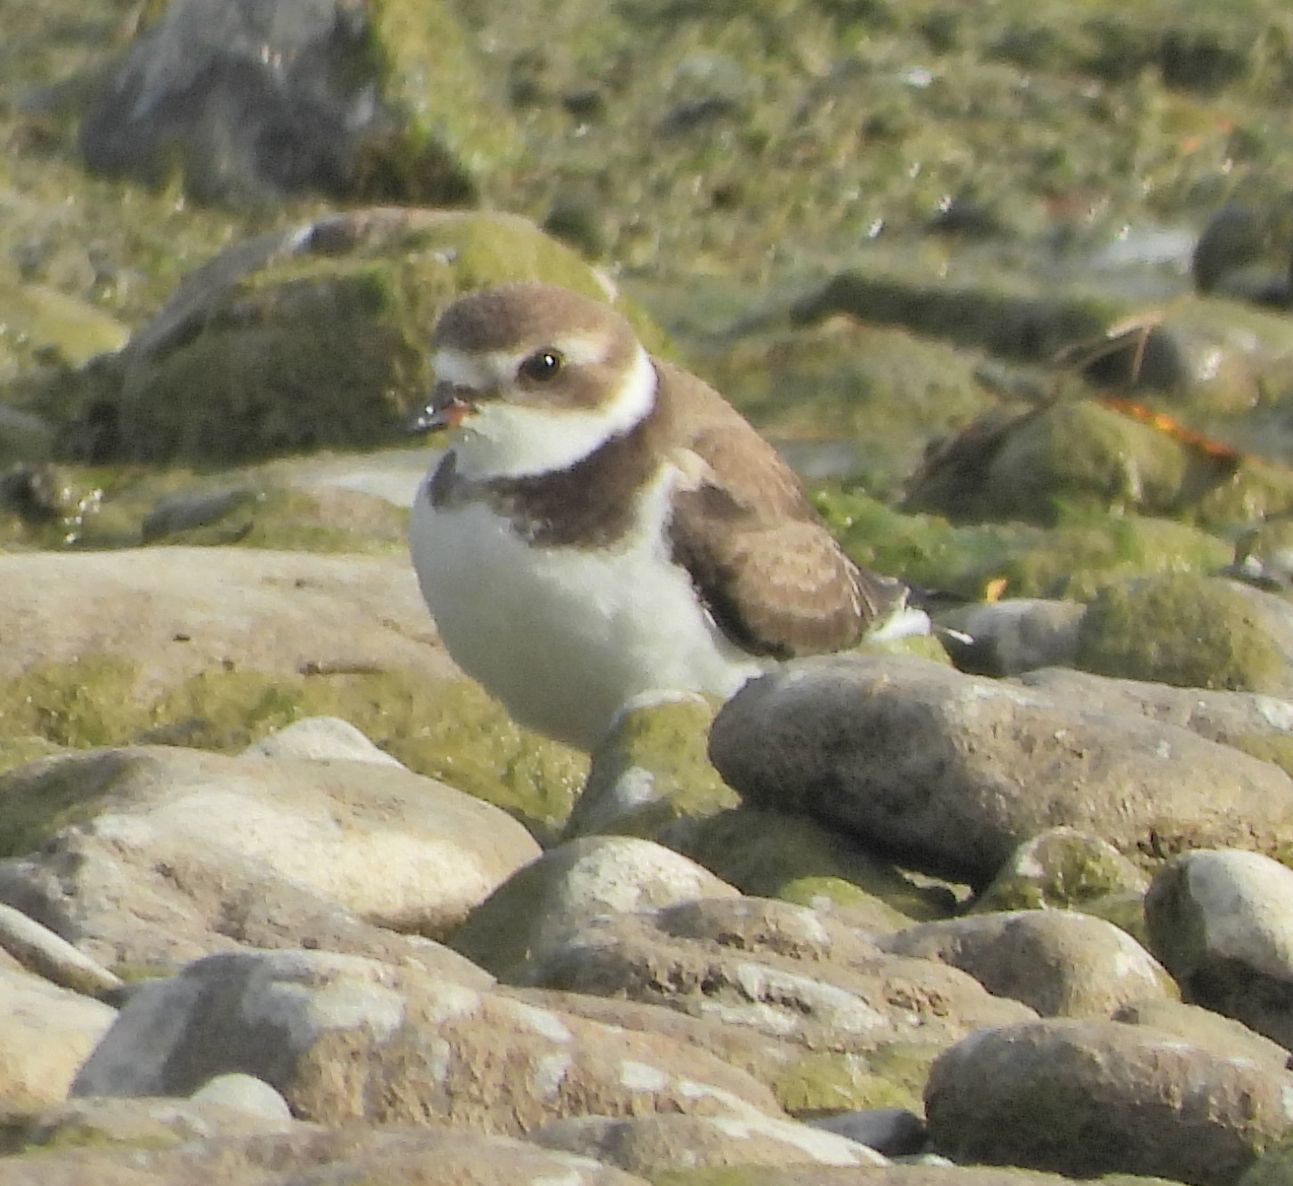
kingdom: Animalia
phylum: Chordata
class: Aves
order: Charadriiformes
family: Charadriidae
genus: Charadrius
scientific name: Charadrius semipalmatus
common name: Semipalmated plover
